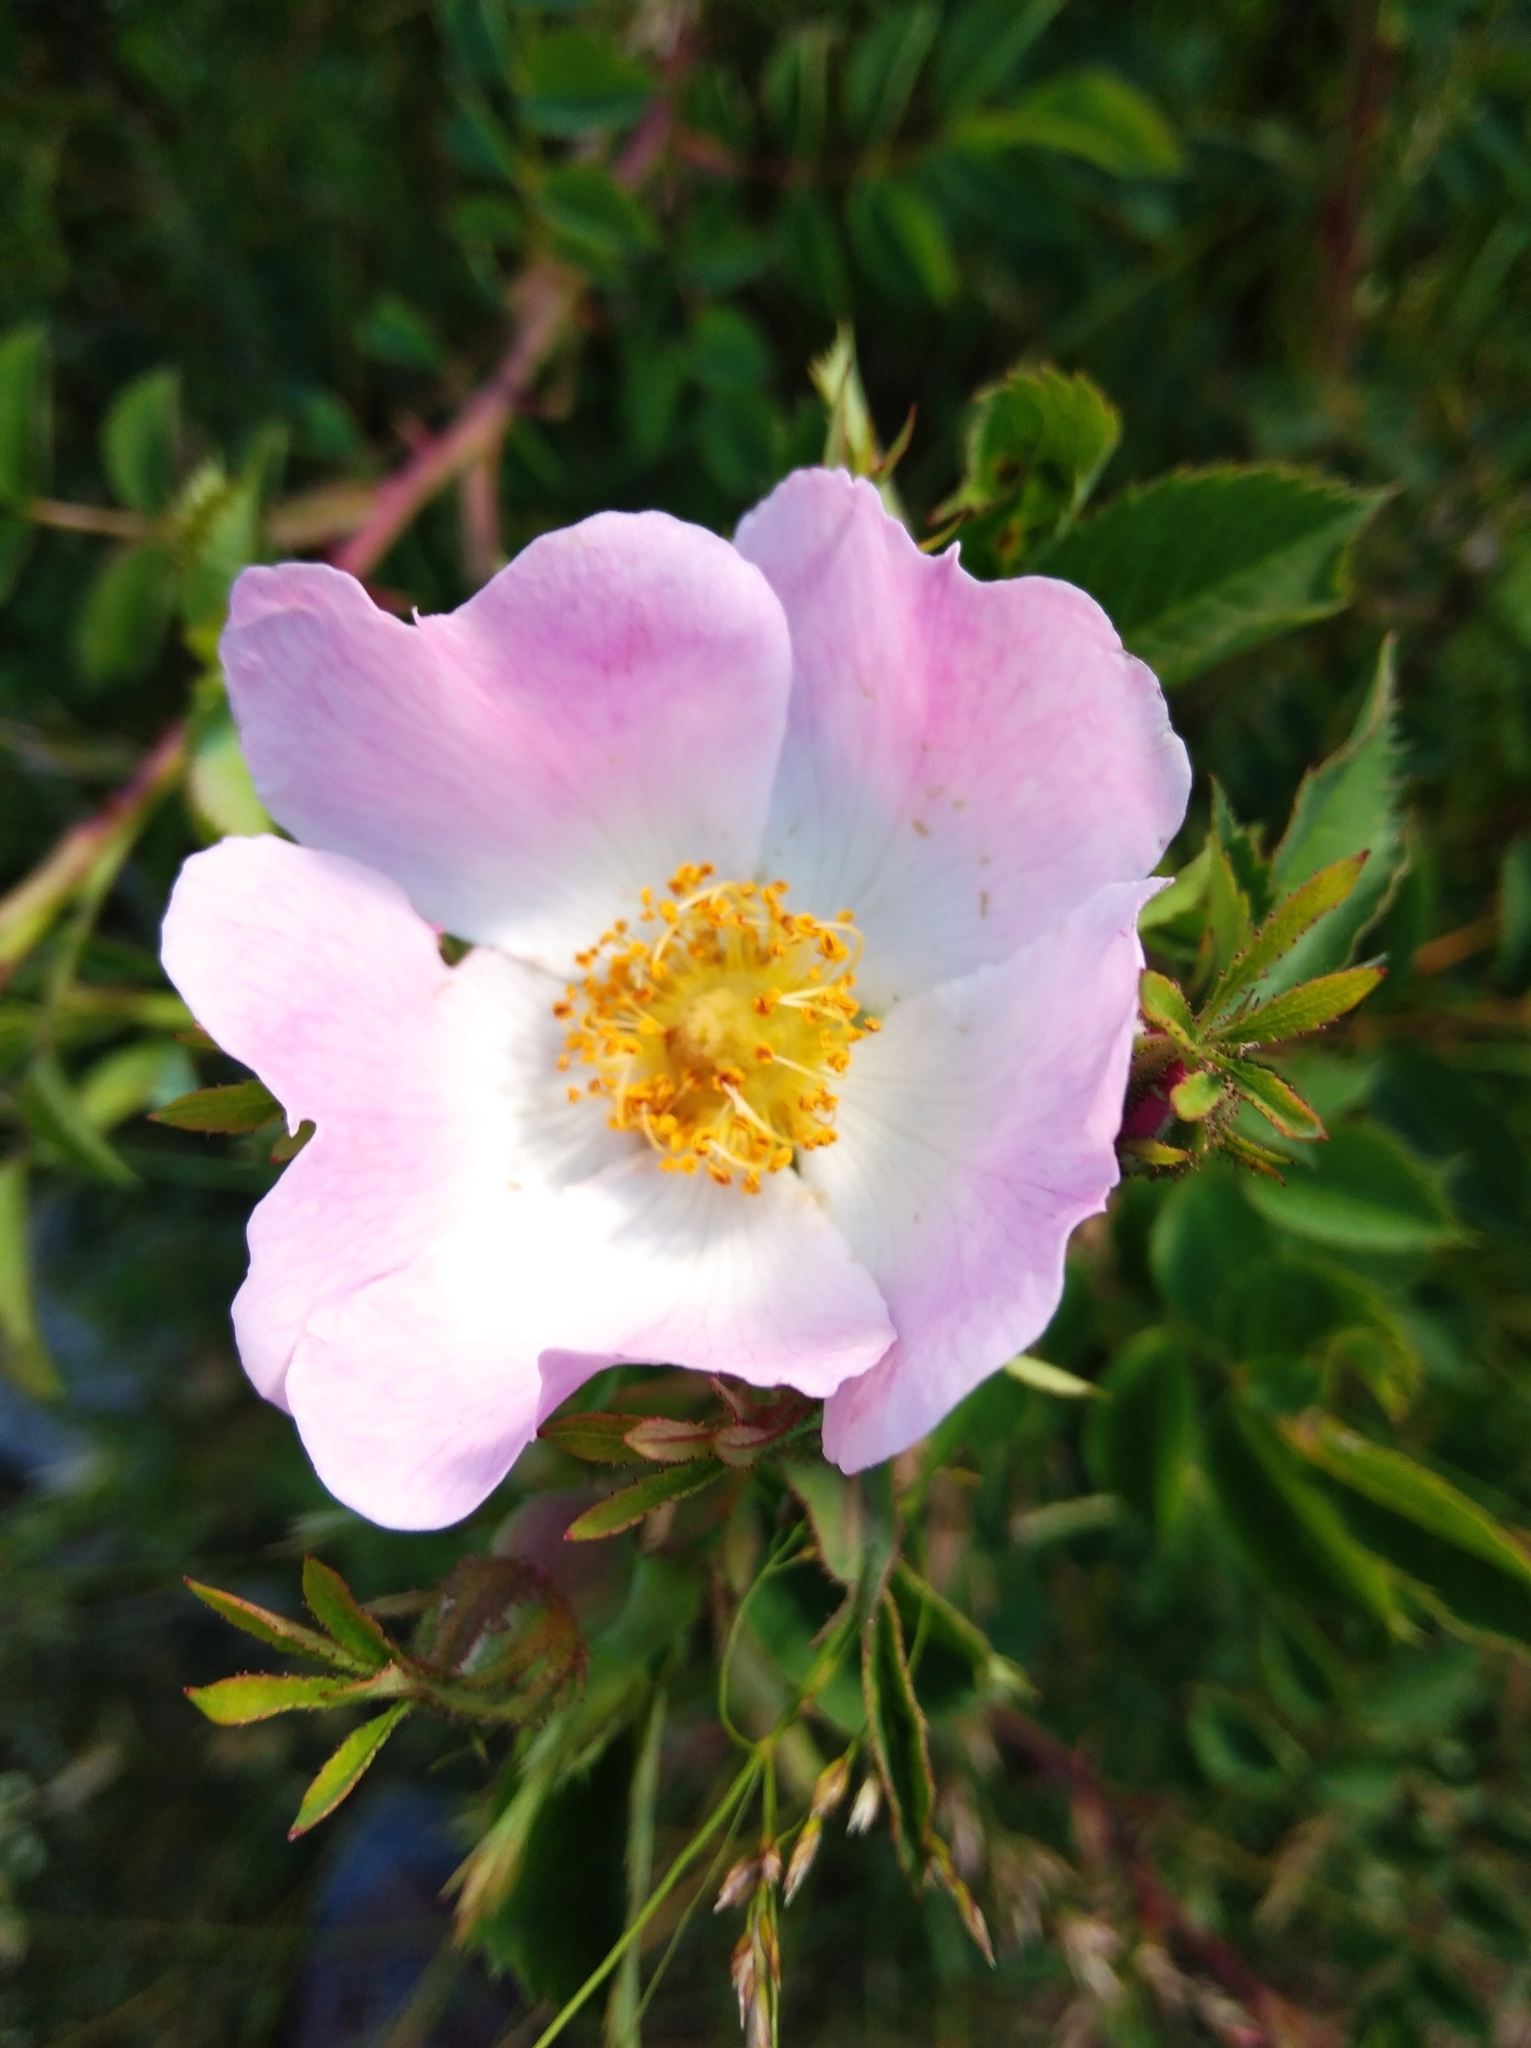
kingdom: Plantae
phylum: Tracheophyta
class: Magnoliopsida
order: Rosales
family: Rosaceae
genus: Rosa
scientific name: Rosa canina
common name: Dog rose
